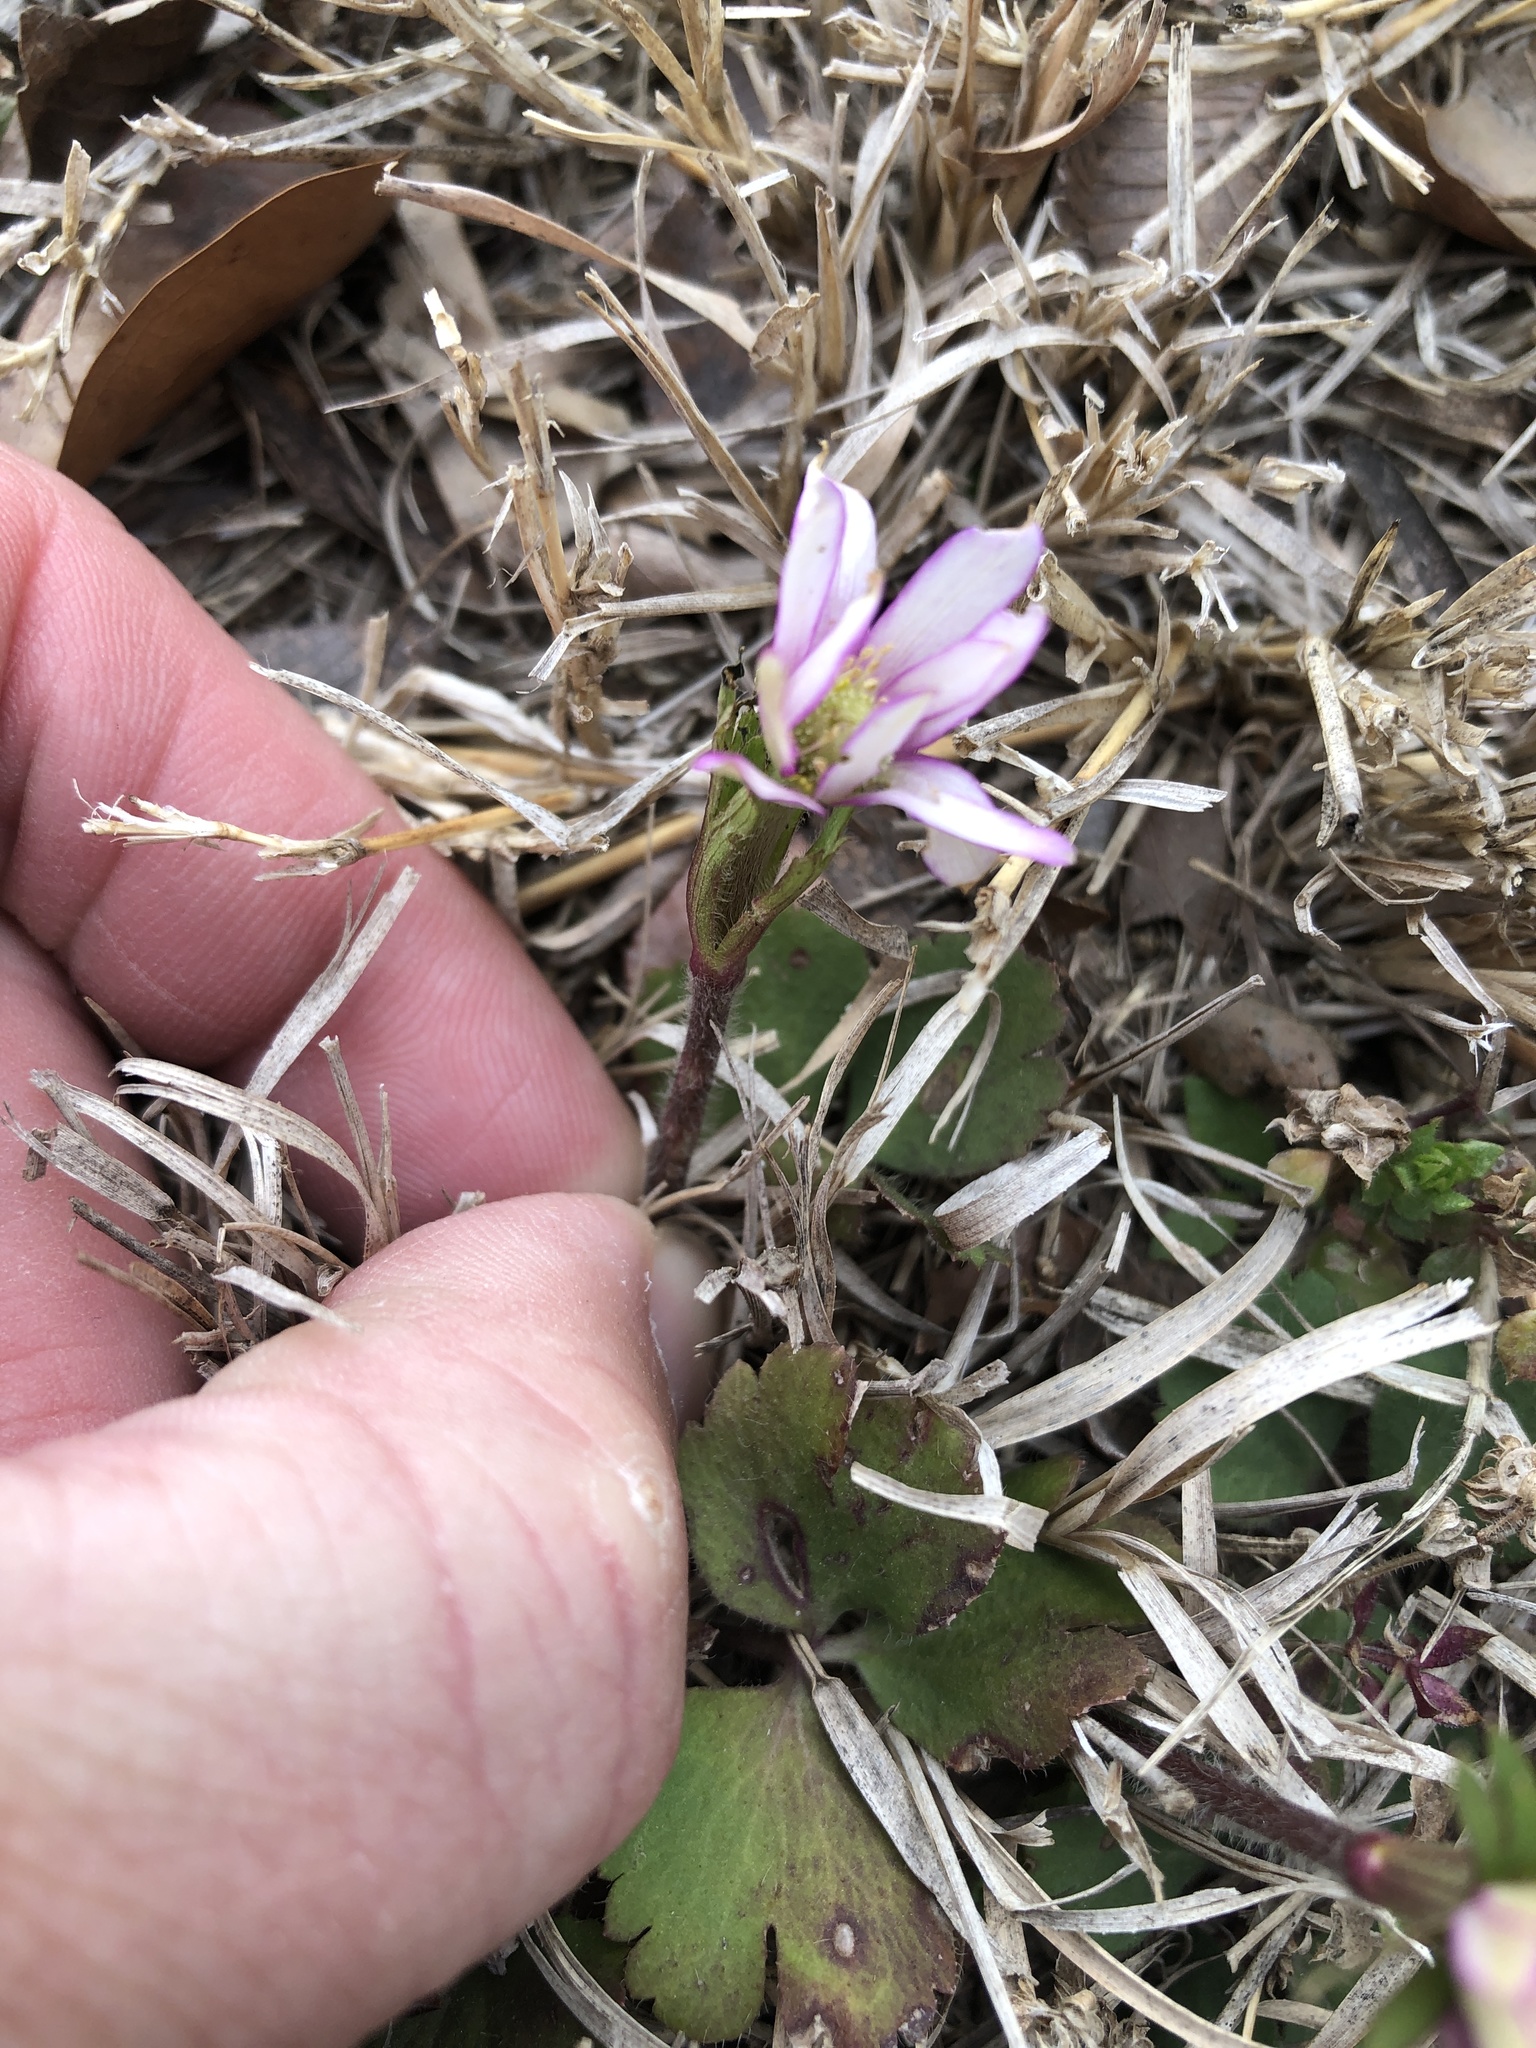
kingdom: Plantae
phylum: Tracheophyta
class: Magnoliopsida
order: Ranunculales
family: Ranunculaceae
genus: Anemone
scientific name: Anemone berlandieri
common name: Ten-petal anemone
